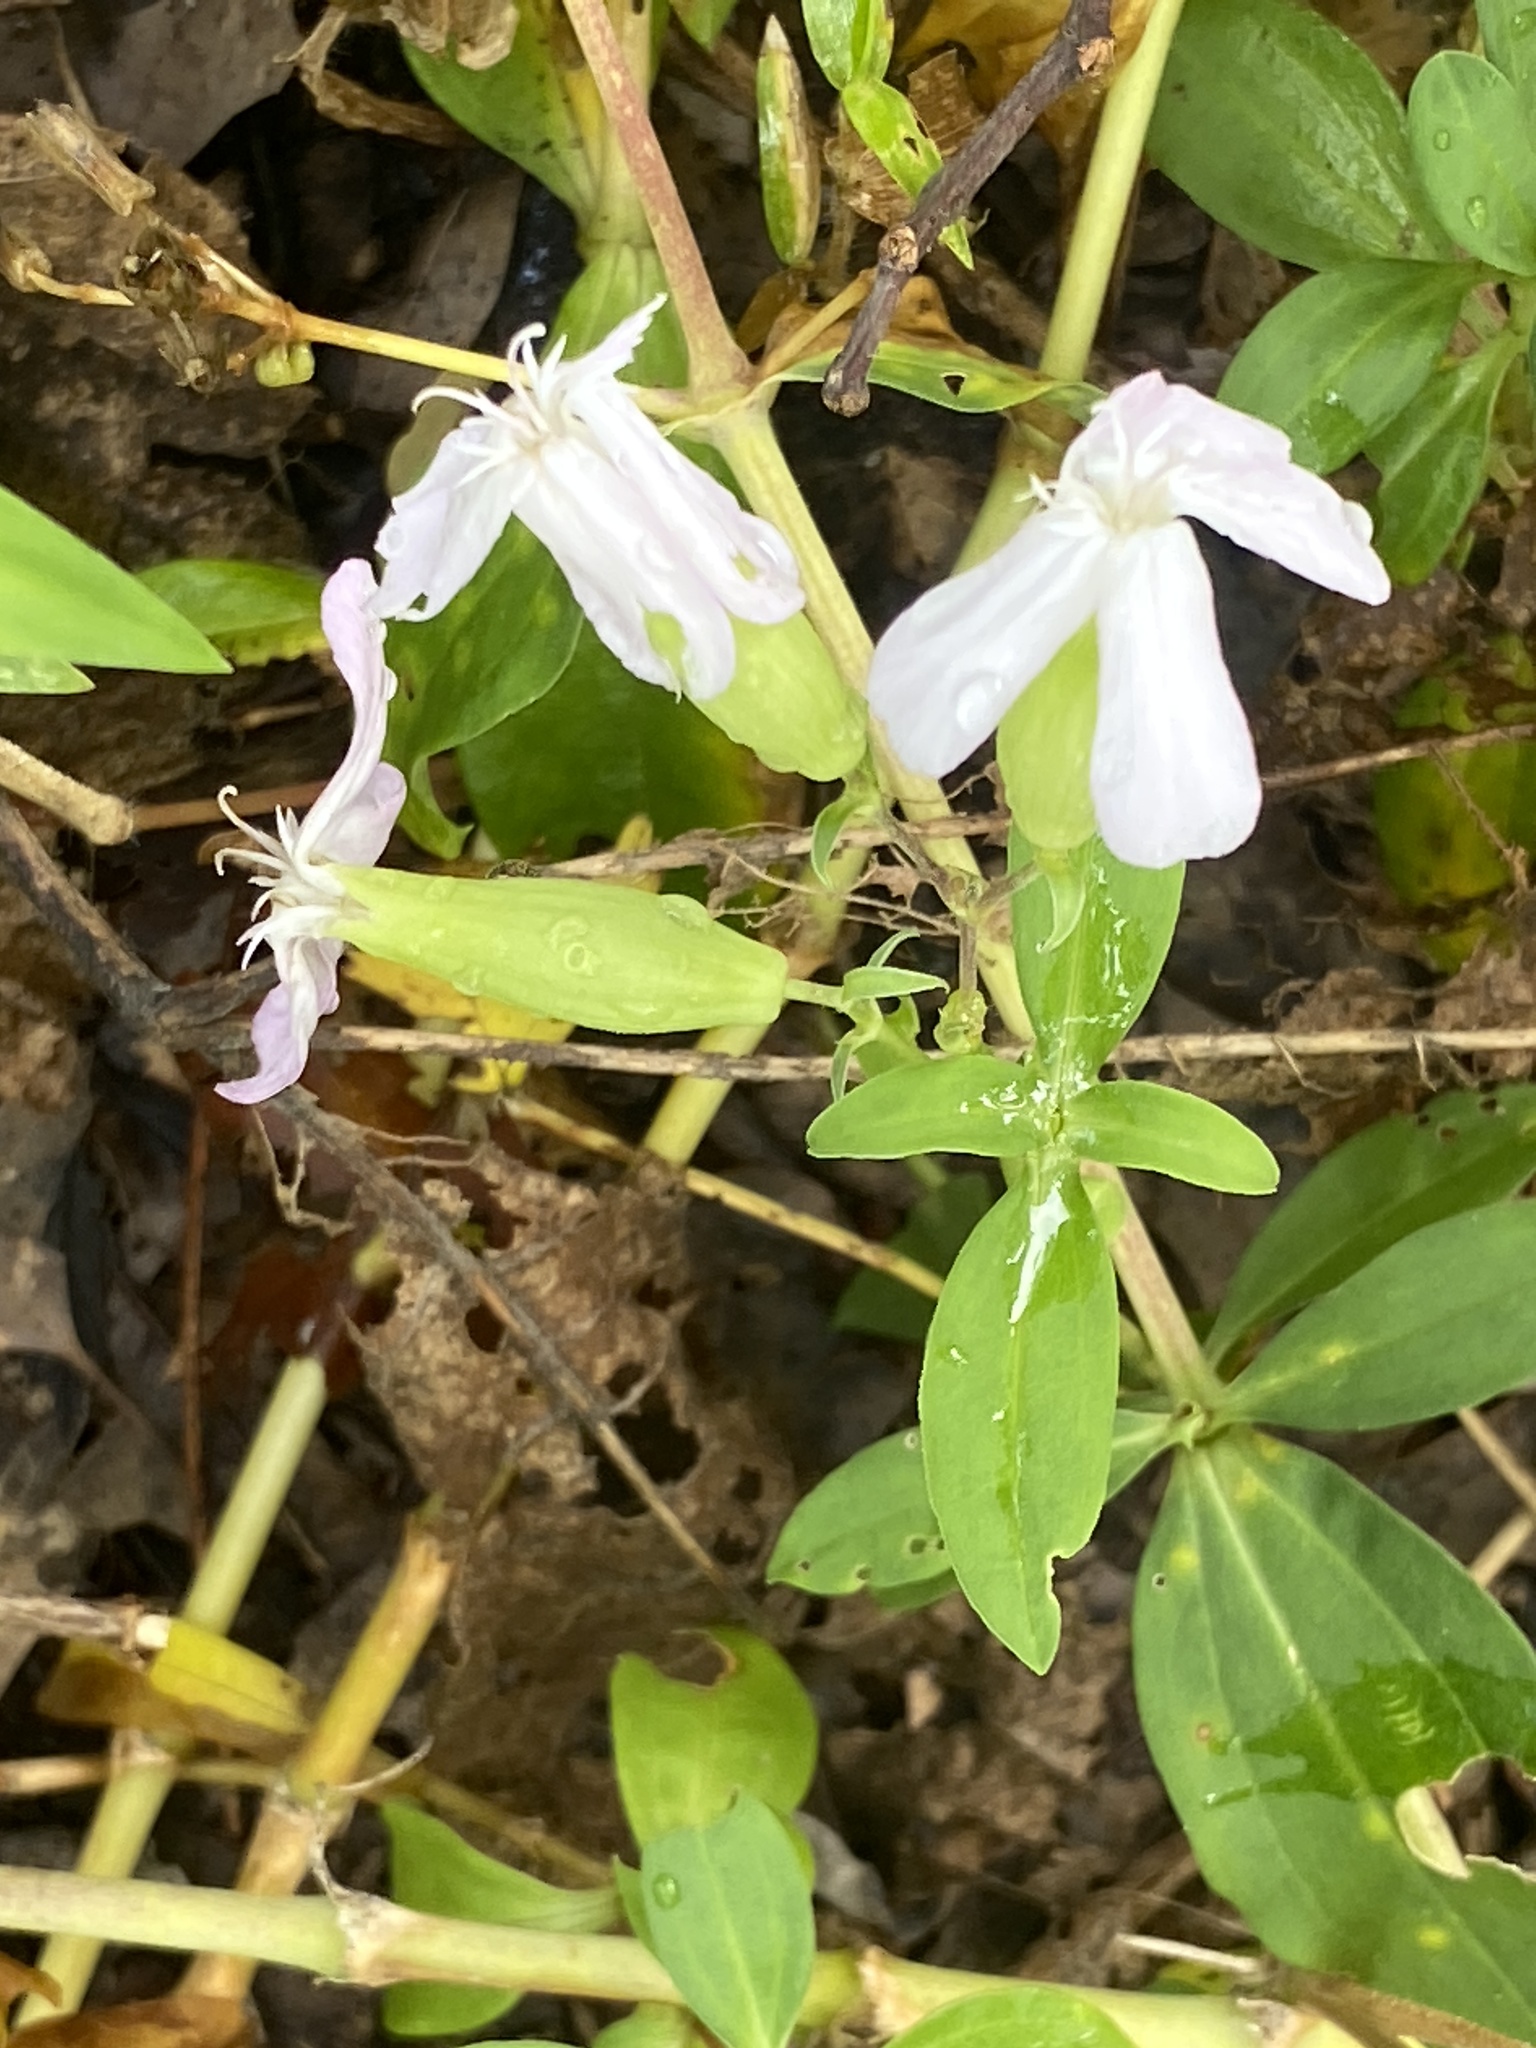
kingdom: Plantae
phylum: Tracheophyta
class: Magnoliopsida
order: Caryophyllales
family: Caryophyllaceae
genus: Saponaria
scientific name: Saponaria officinalis
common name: Soapwort
